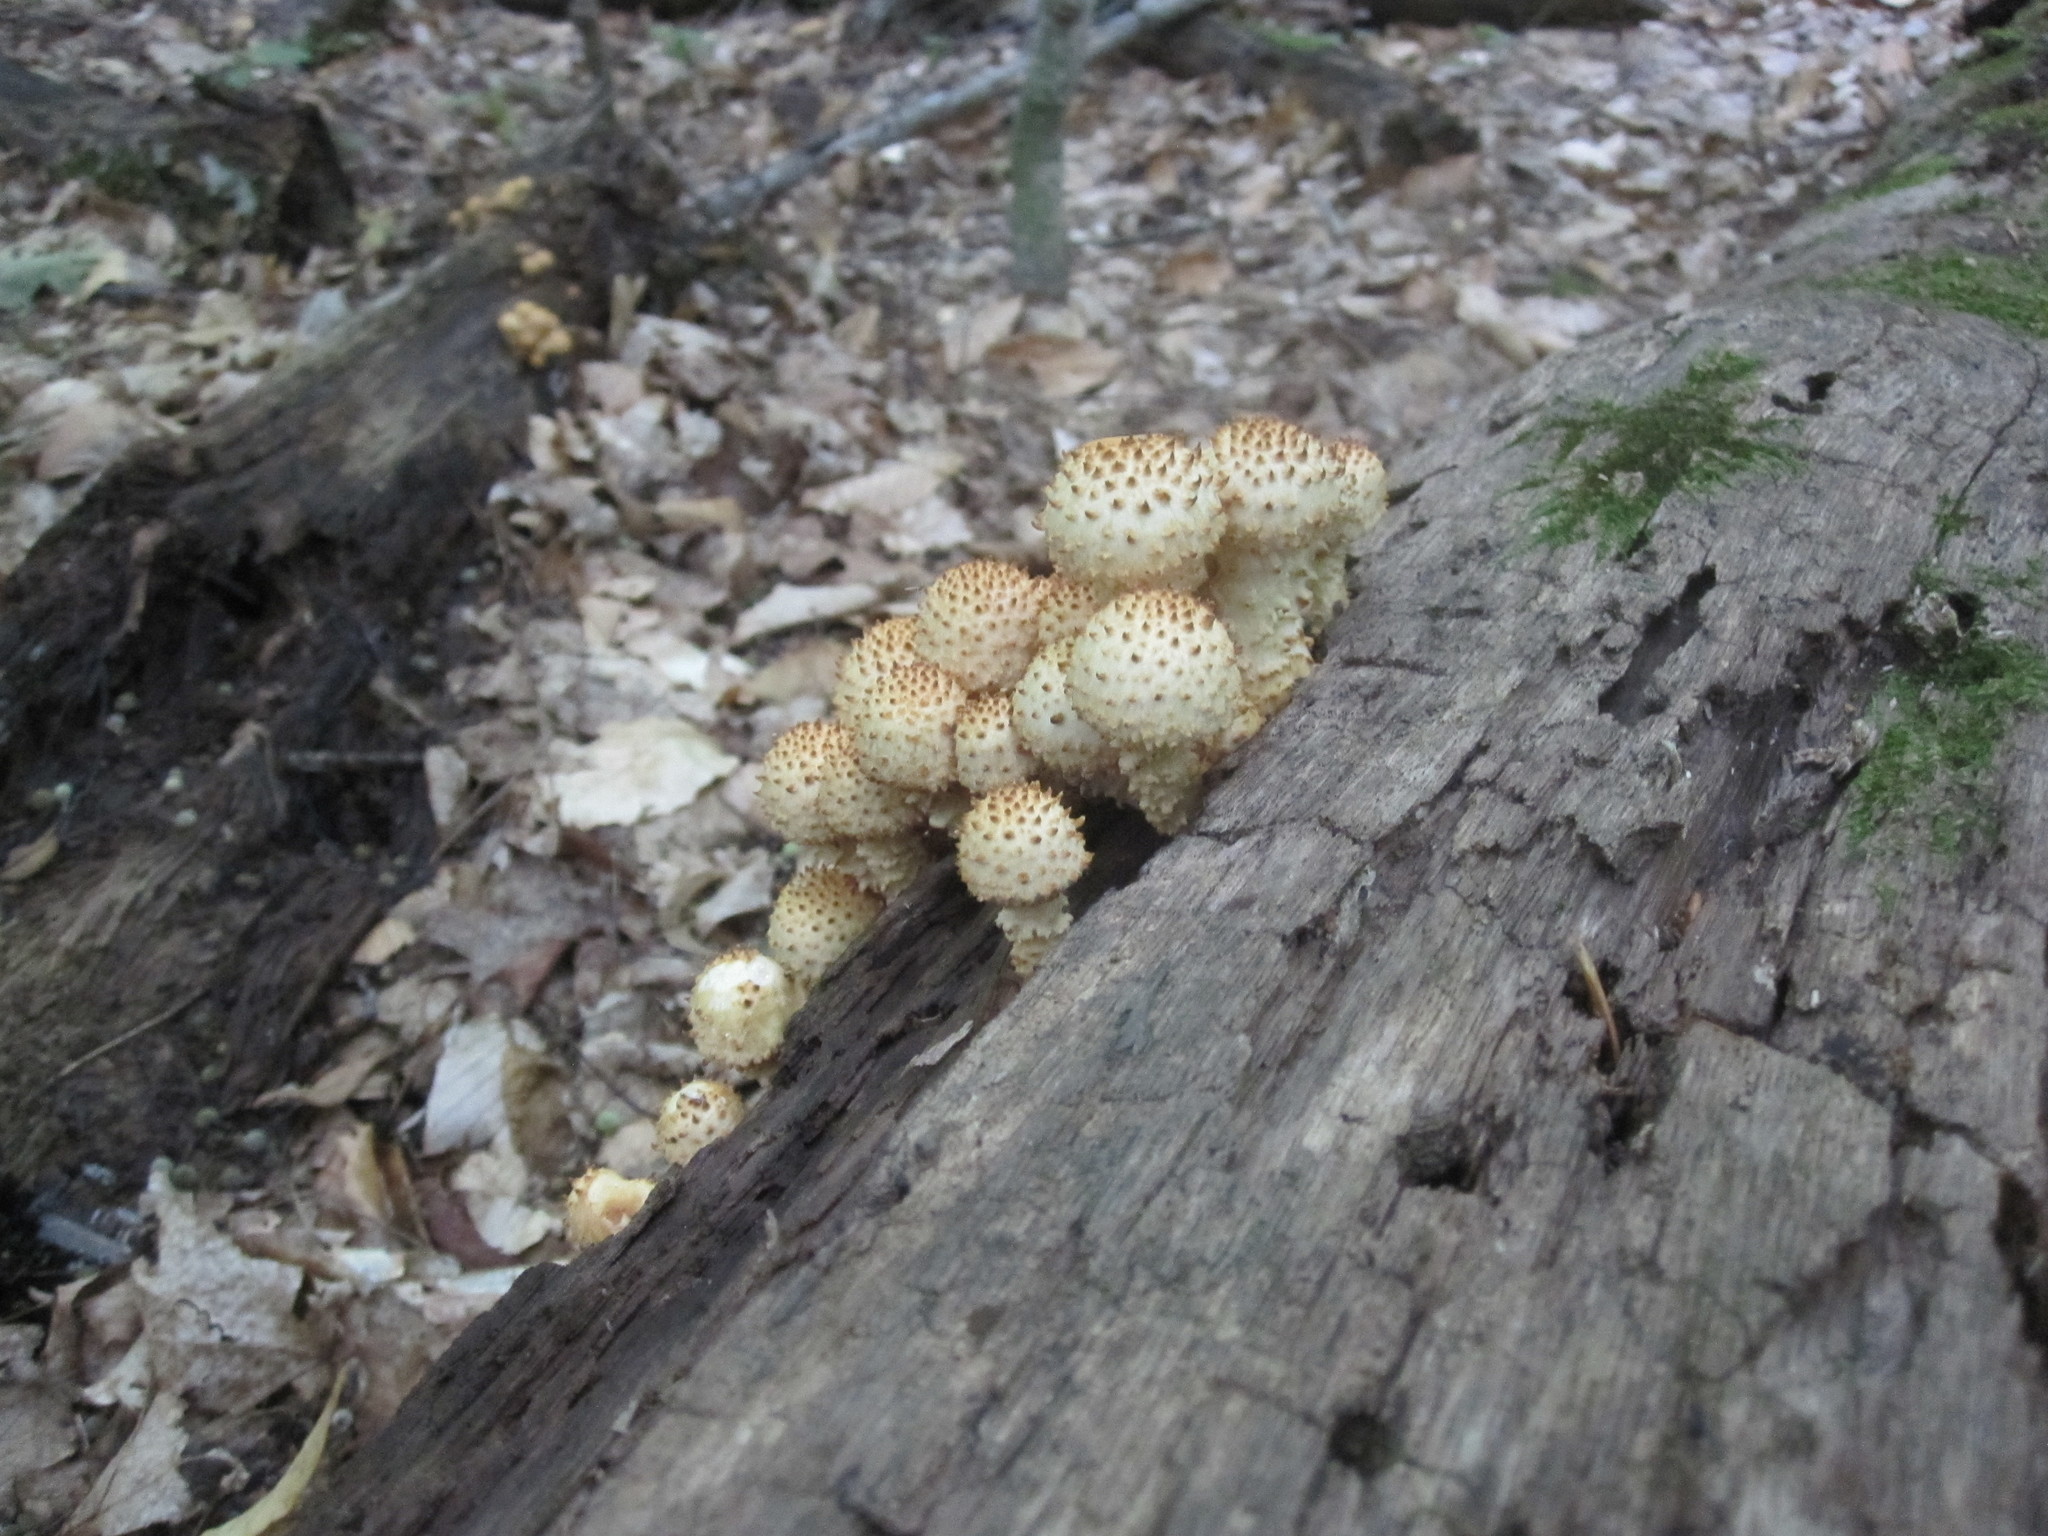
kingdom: Fungi
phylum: Basidiomycota
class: Agaricomycetes
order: Agaricales
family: Strophariaceae
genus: Pholiota
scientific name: Pholiota squarrosoides
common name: Sharp-scaly pholiota
